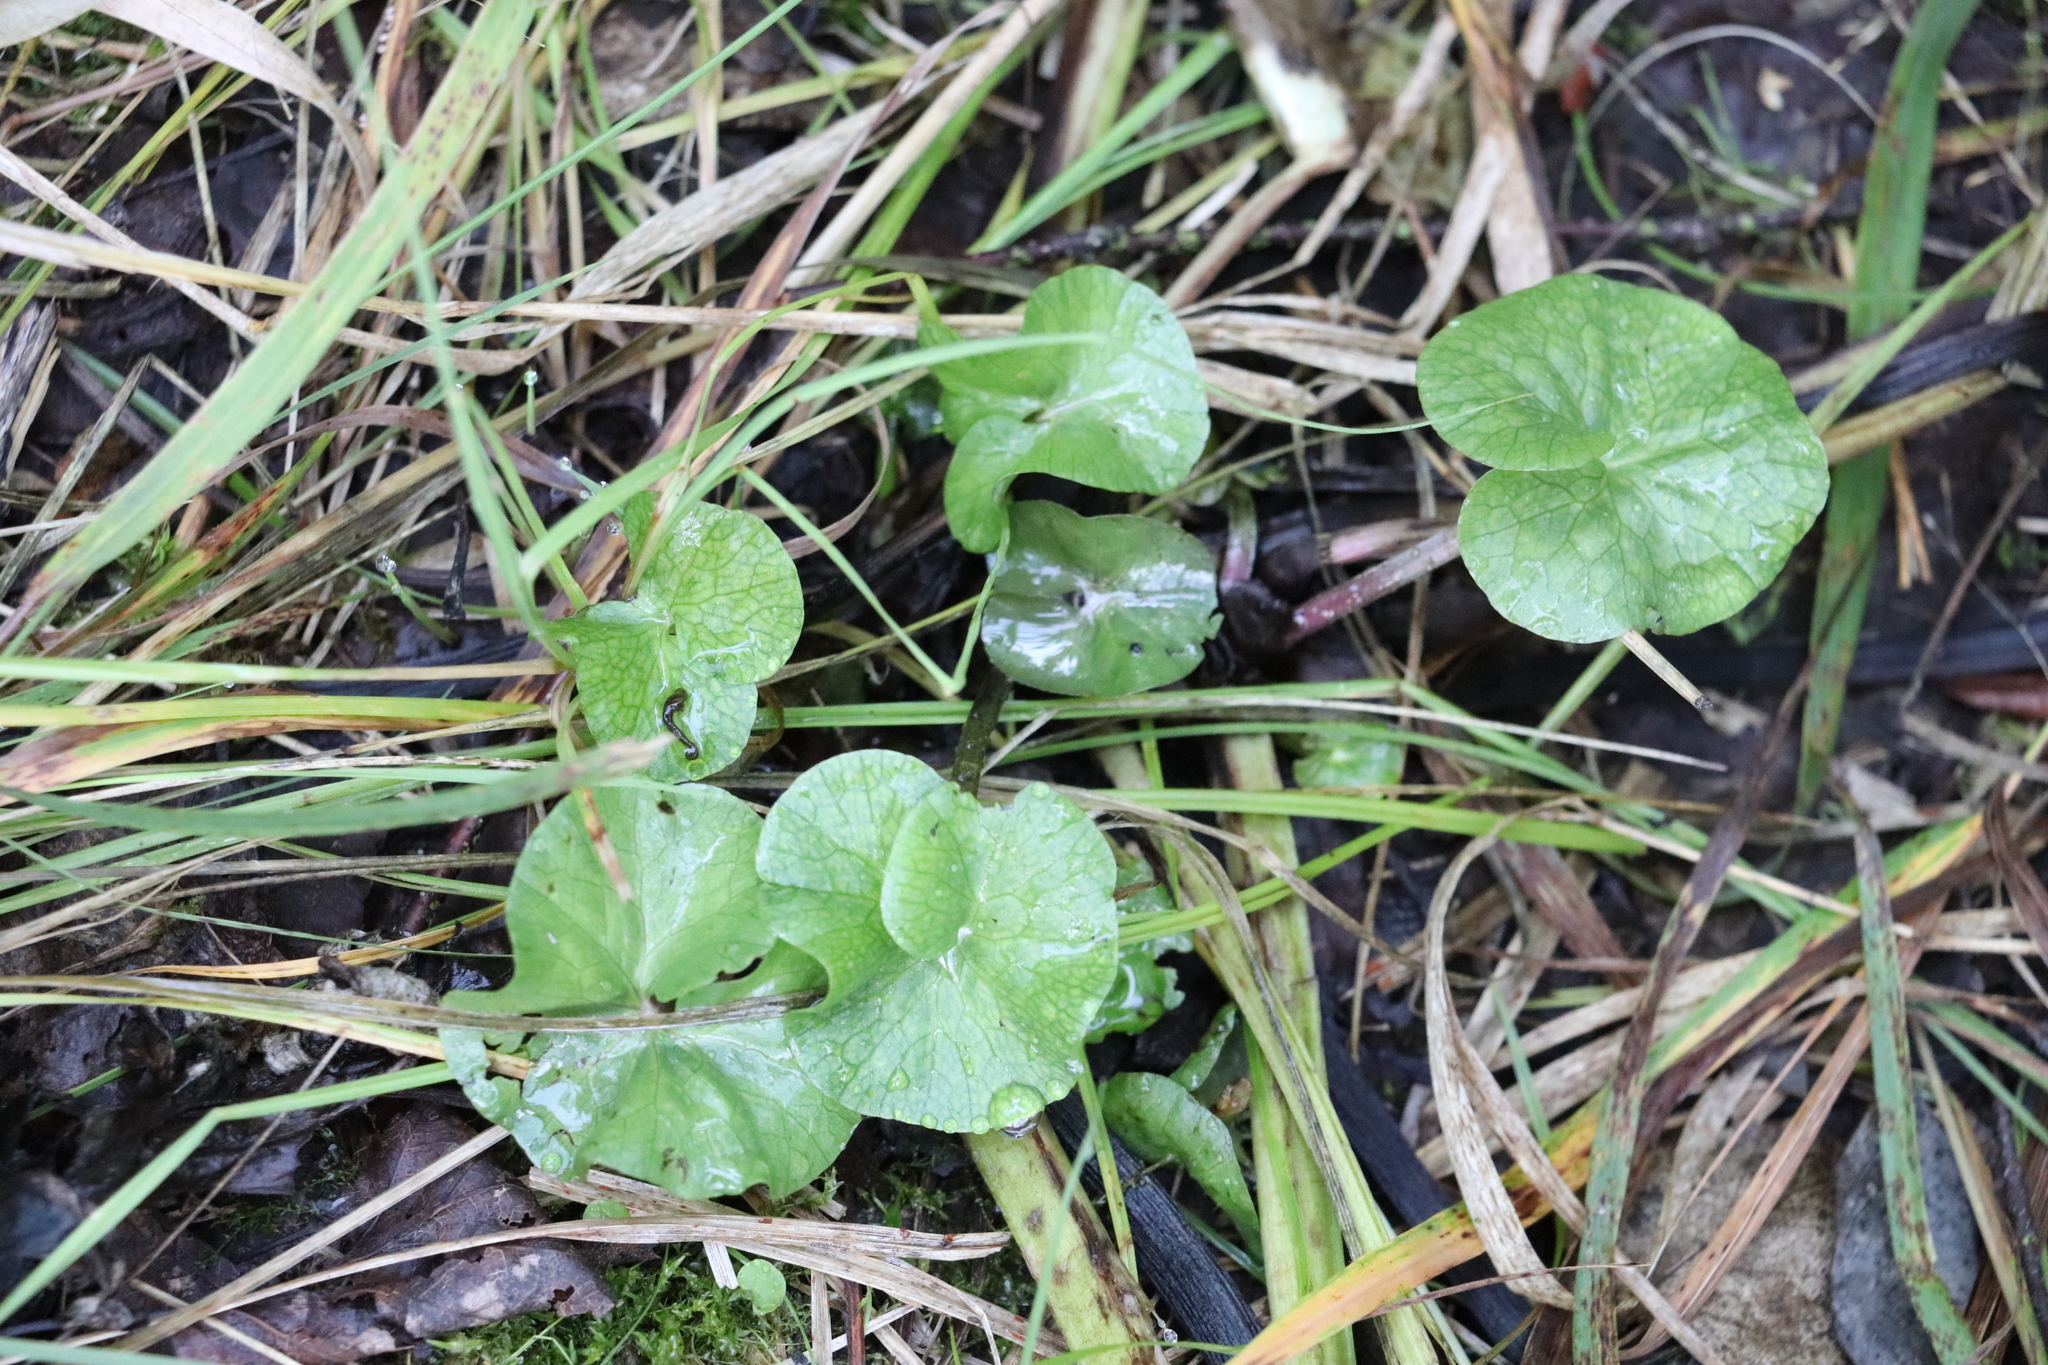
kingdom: Plantae
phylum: Tracheophyta
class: Magnoliopsida
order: Ranunculales
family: Ranunculaceae
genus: Caltha
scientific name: Caltha palustris
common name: Marsh marigold
